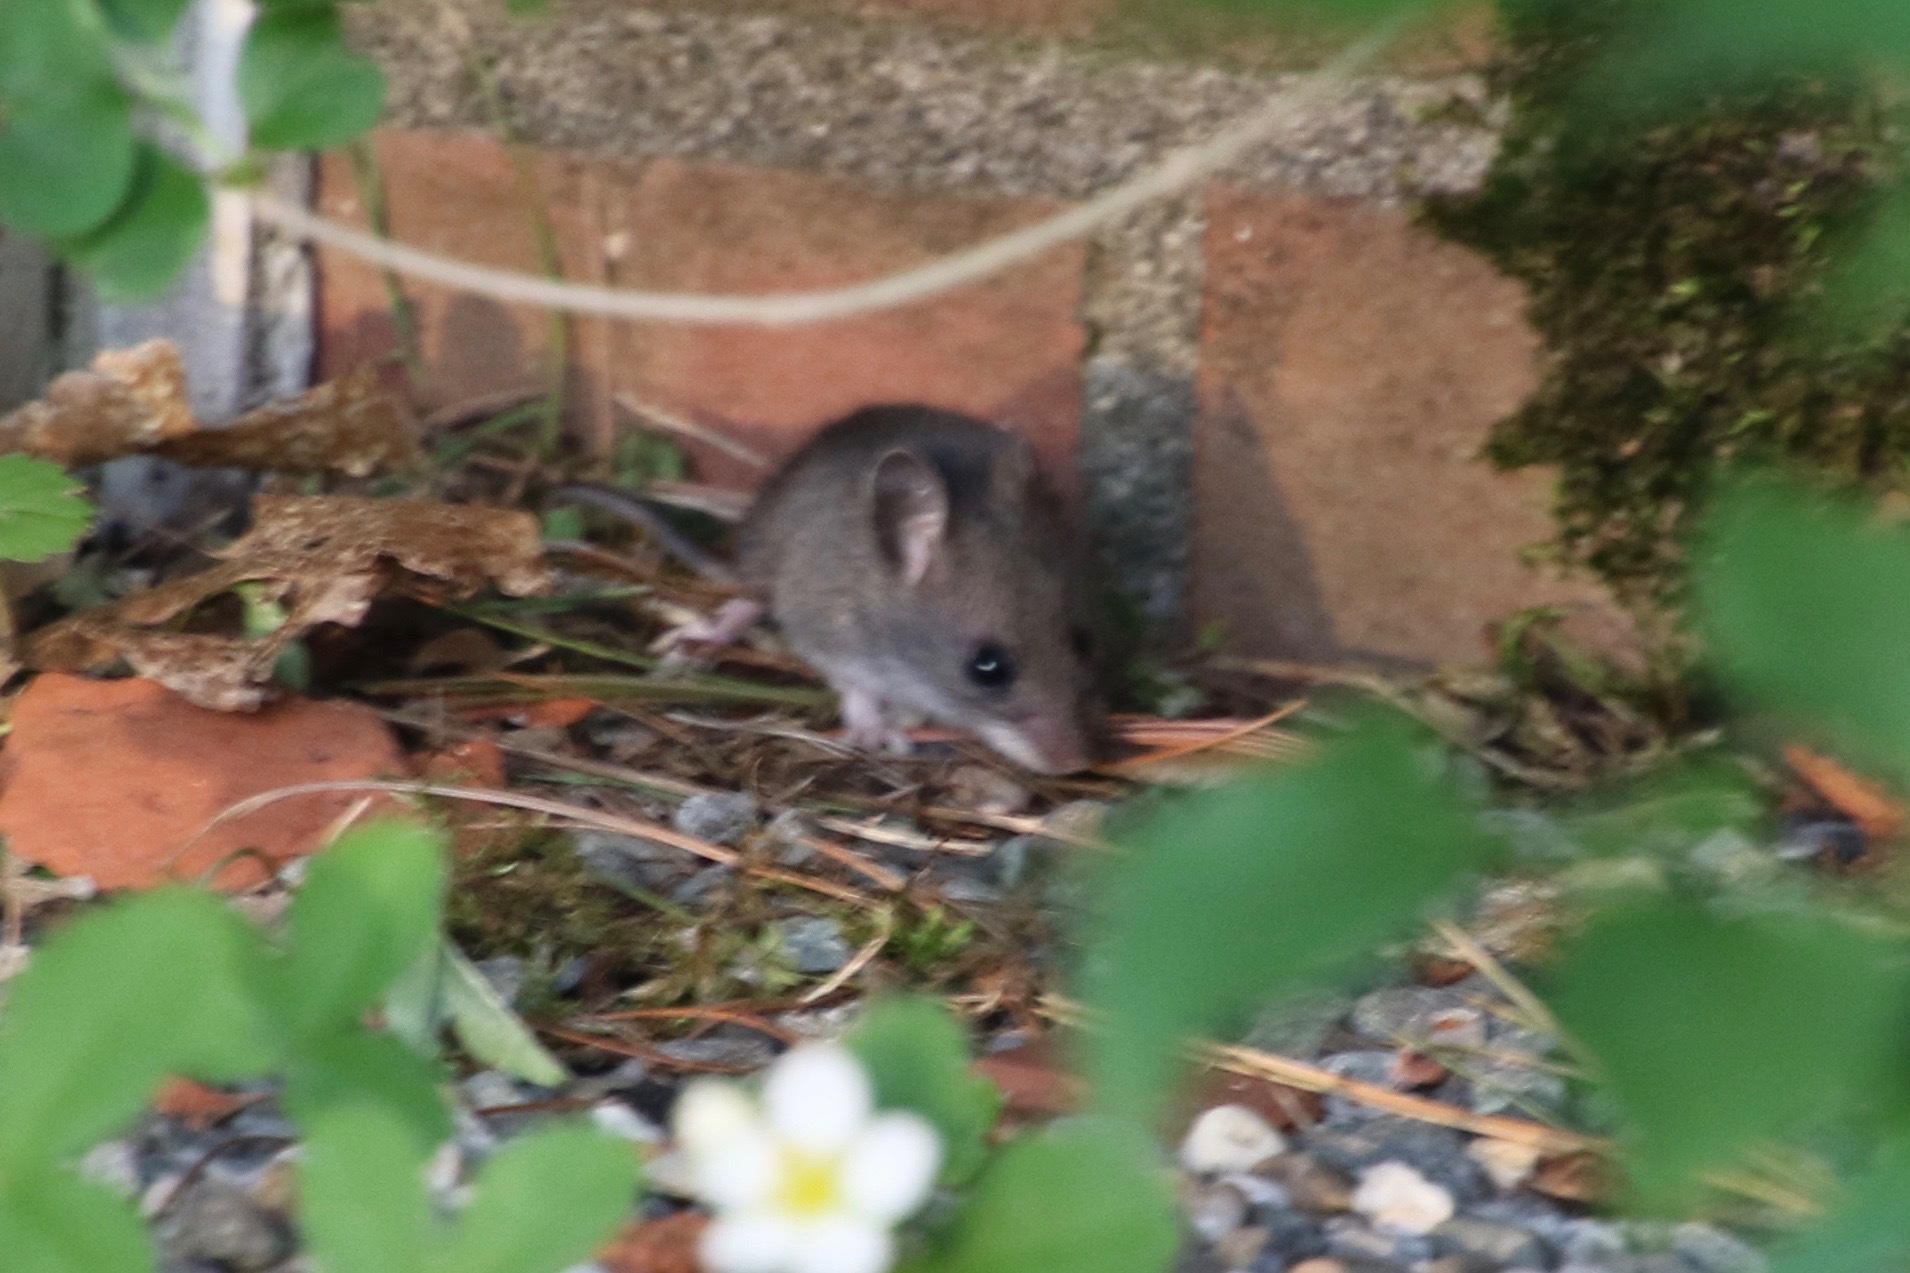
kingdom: Animalia
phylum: Chordata
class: Mammalia
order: Rodentia
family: Cricetidae
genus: Peromyscus
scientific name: Peromyscus
